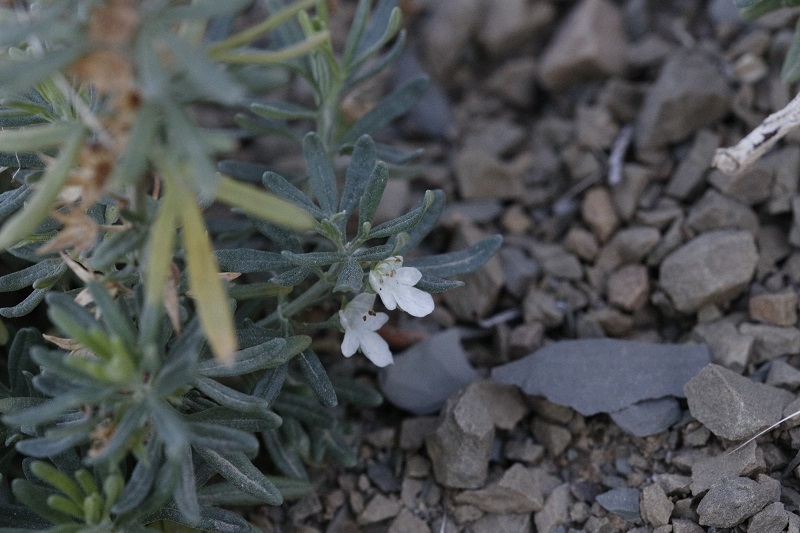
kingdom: Plantae
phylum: Tracheophyta
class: Magnoliopsida
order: Lamiales
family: Lamiaceae
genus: Teucrium
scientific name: Teucrium trifidum
